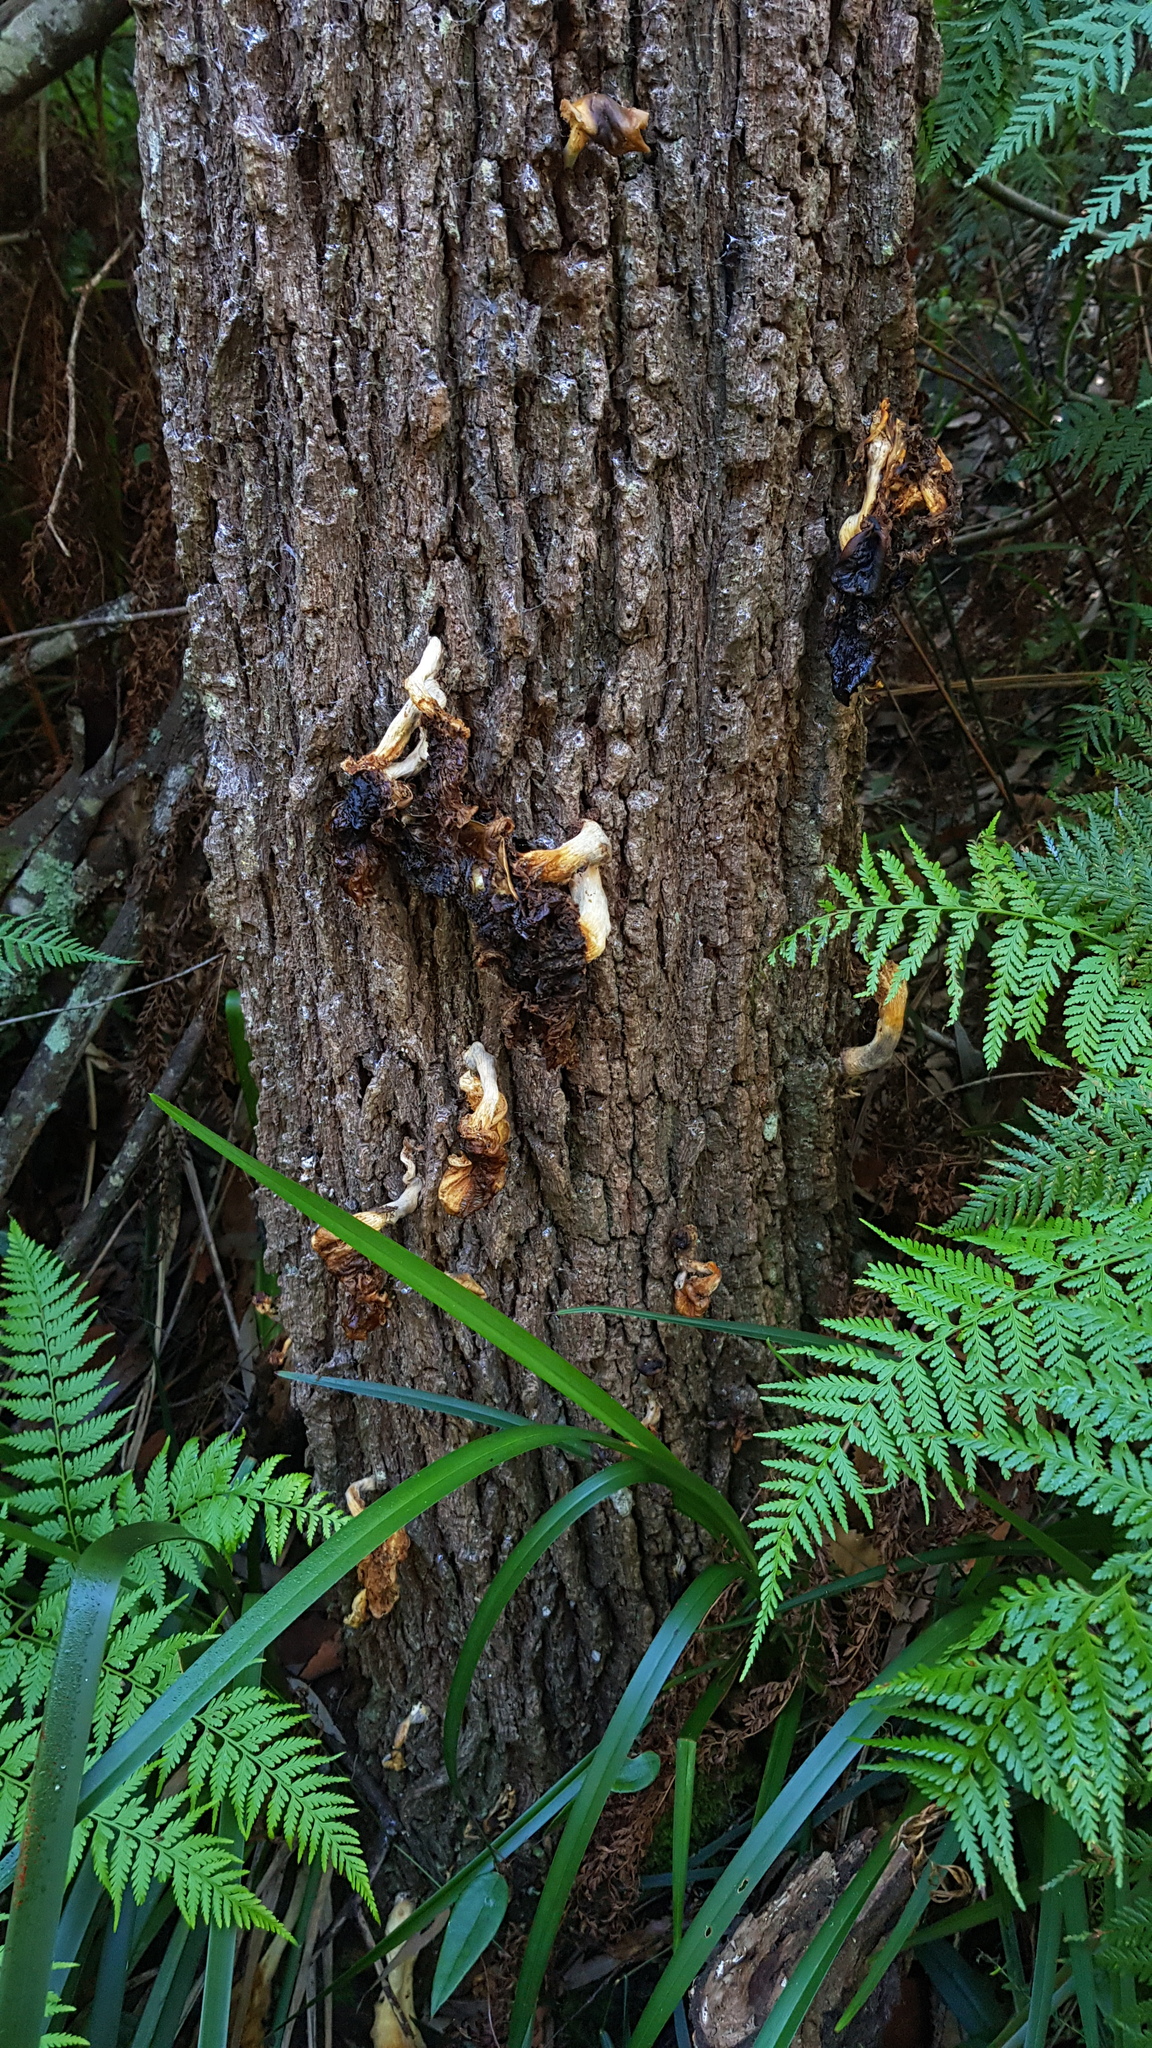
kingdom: Fungi
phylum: Basidiomycota
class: Agaricomycetes
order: Agaricales
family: Omphalotaceae
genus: Omphalotus
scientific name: Omphalotus nidiformis
